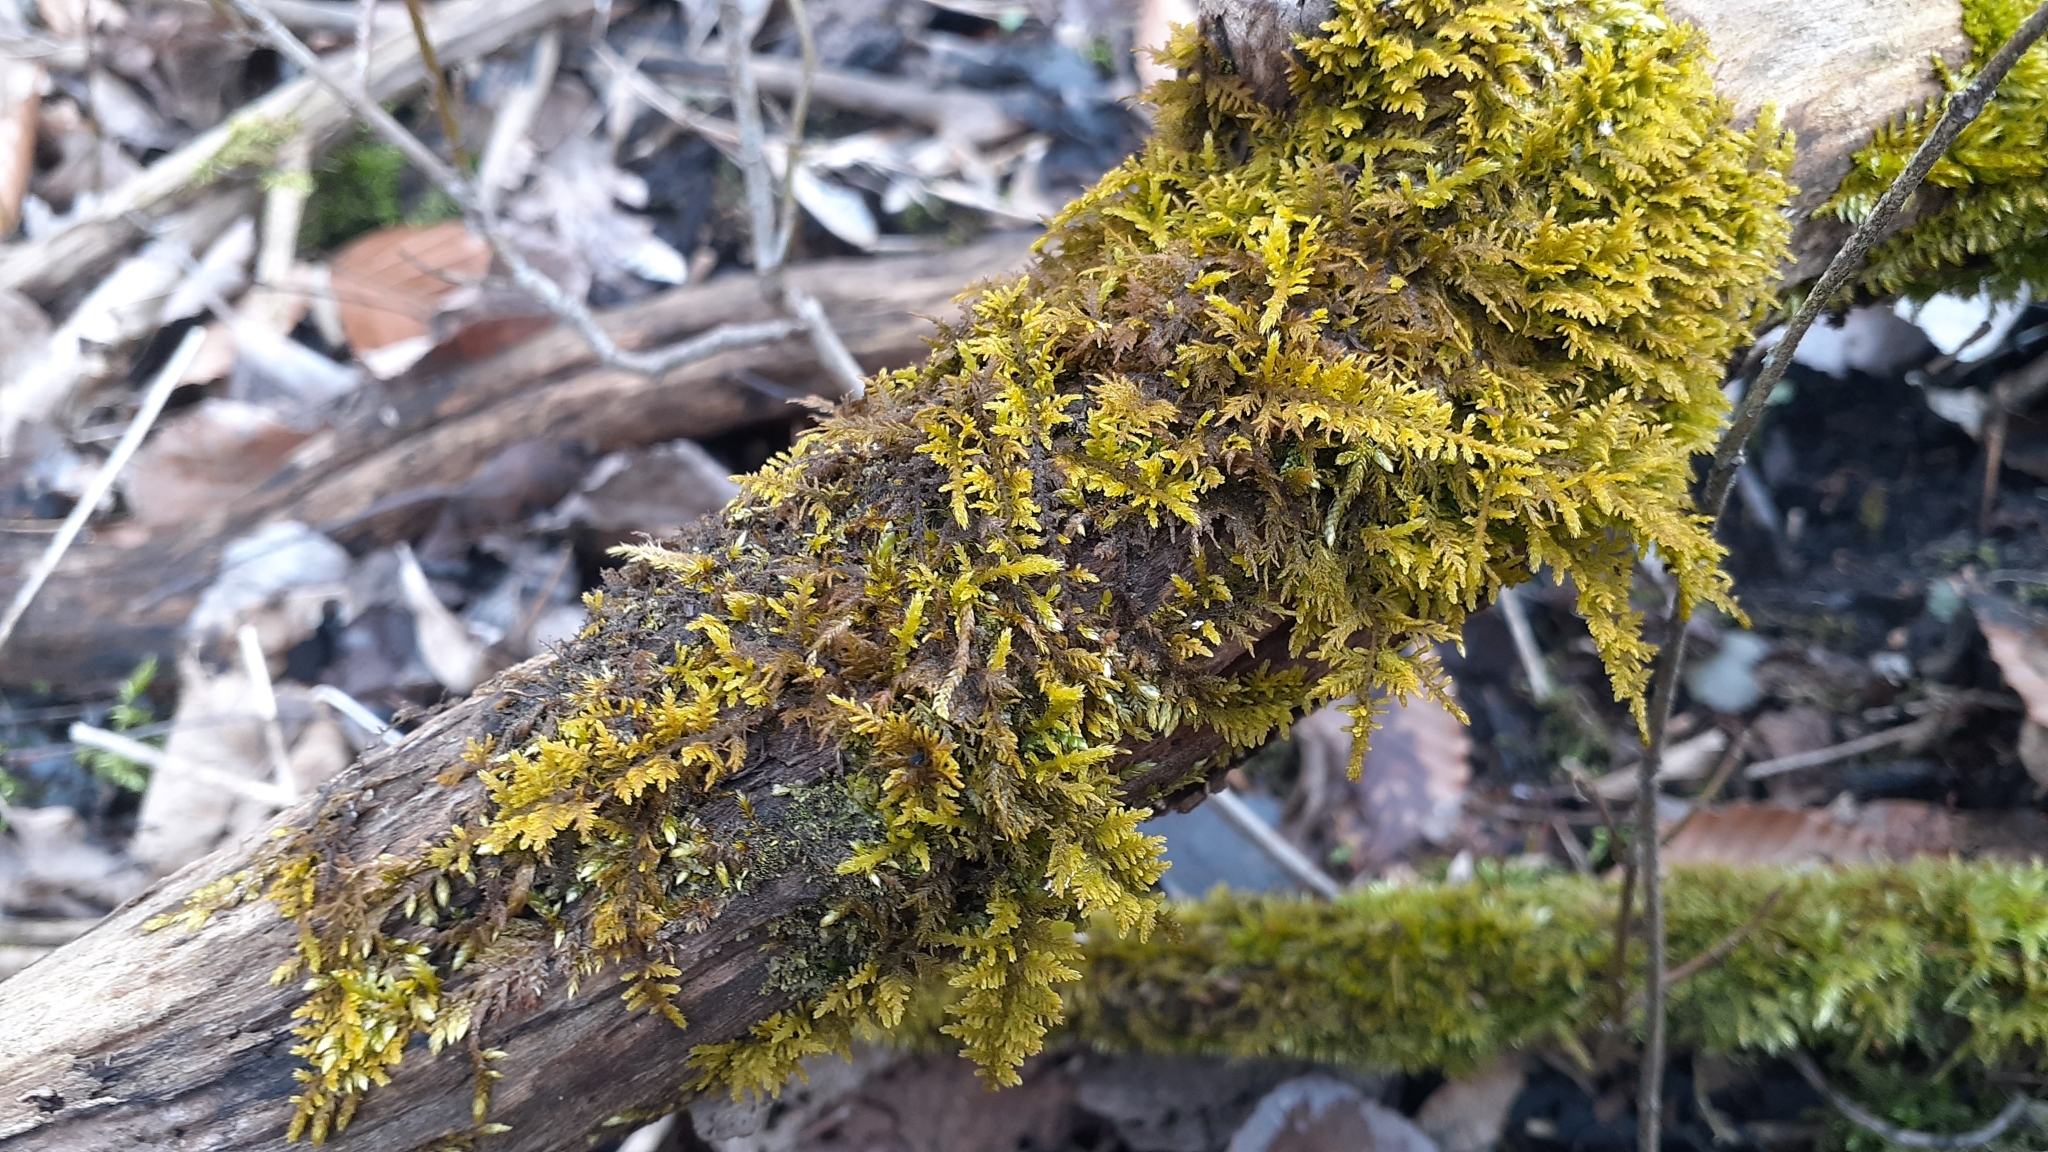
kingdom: Plantae
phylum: Bryophyta
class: Bryopsida
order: Hypnales
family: Thuidiaceae
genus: Thuidium
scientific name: Thuidium delicatulum
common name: Delicate fern moss
